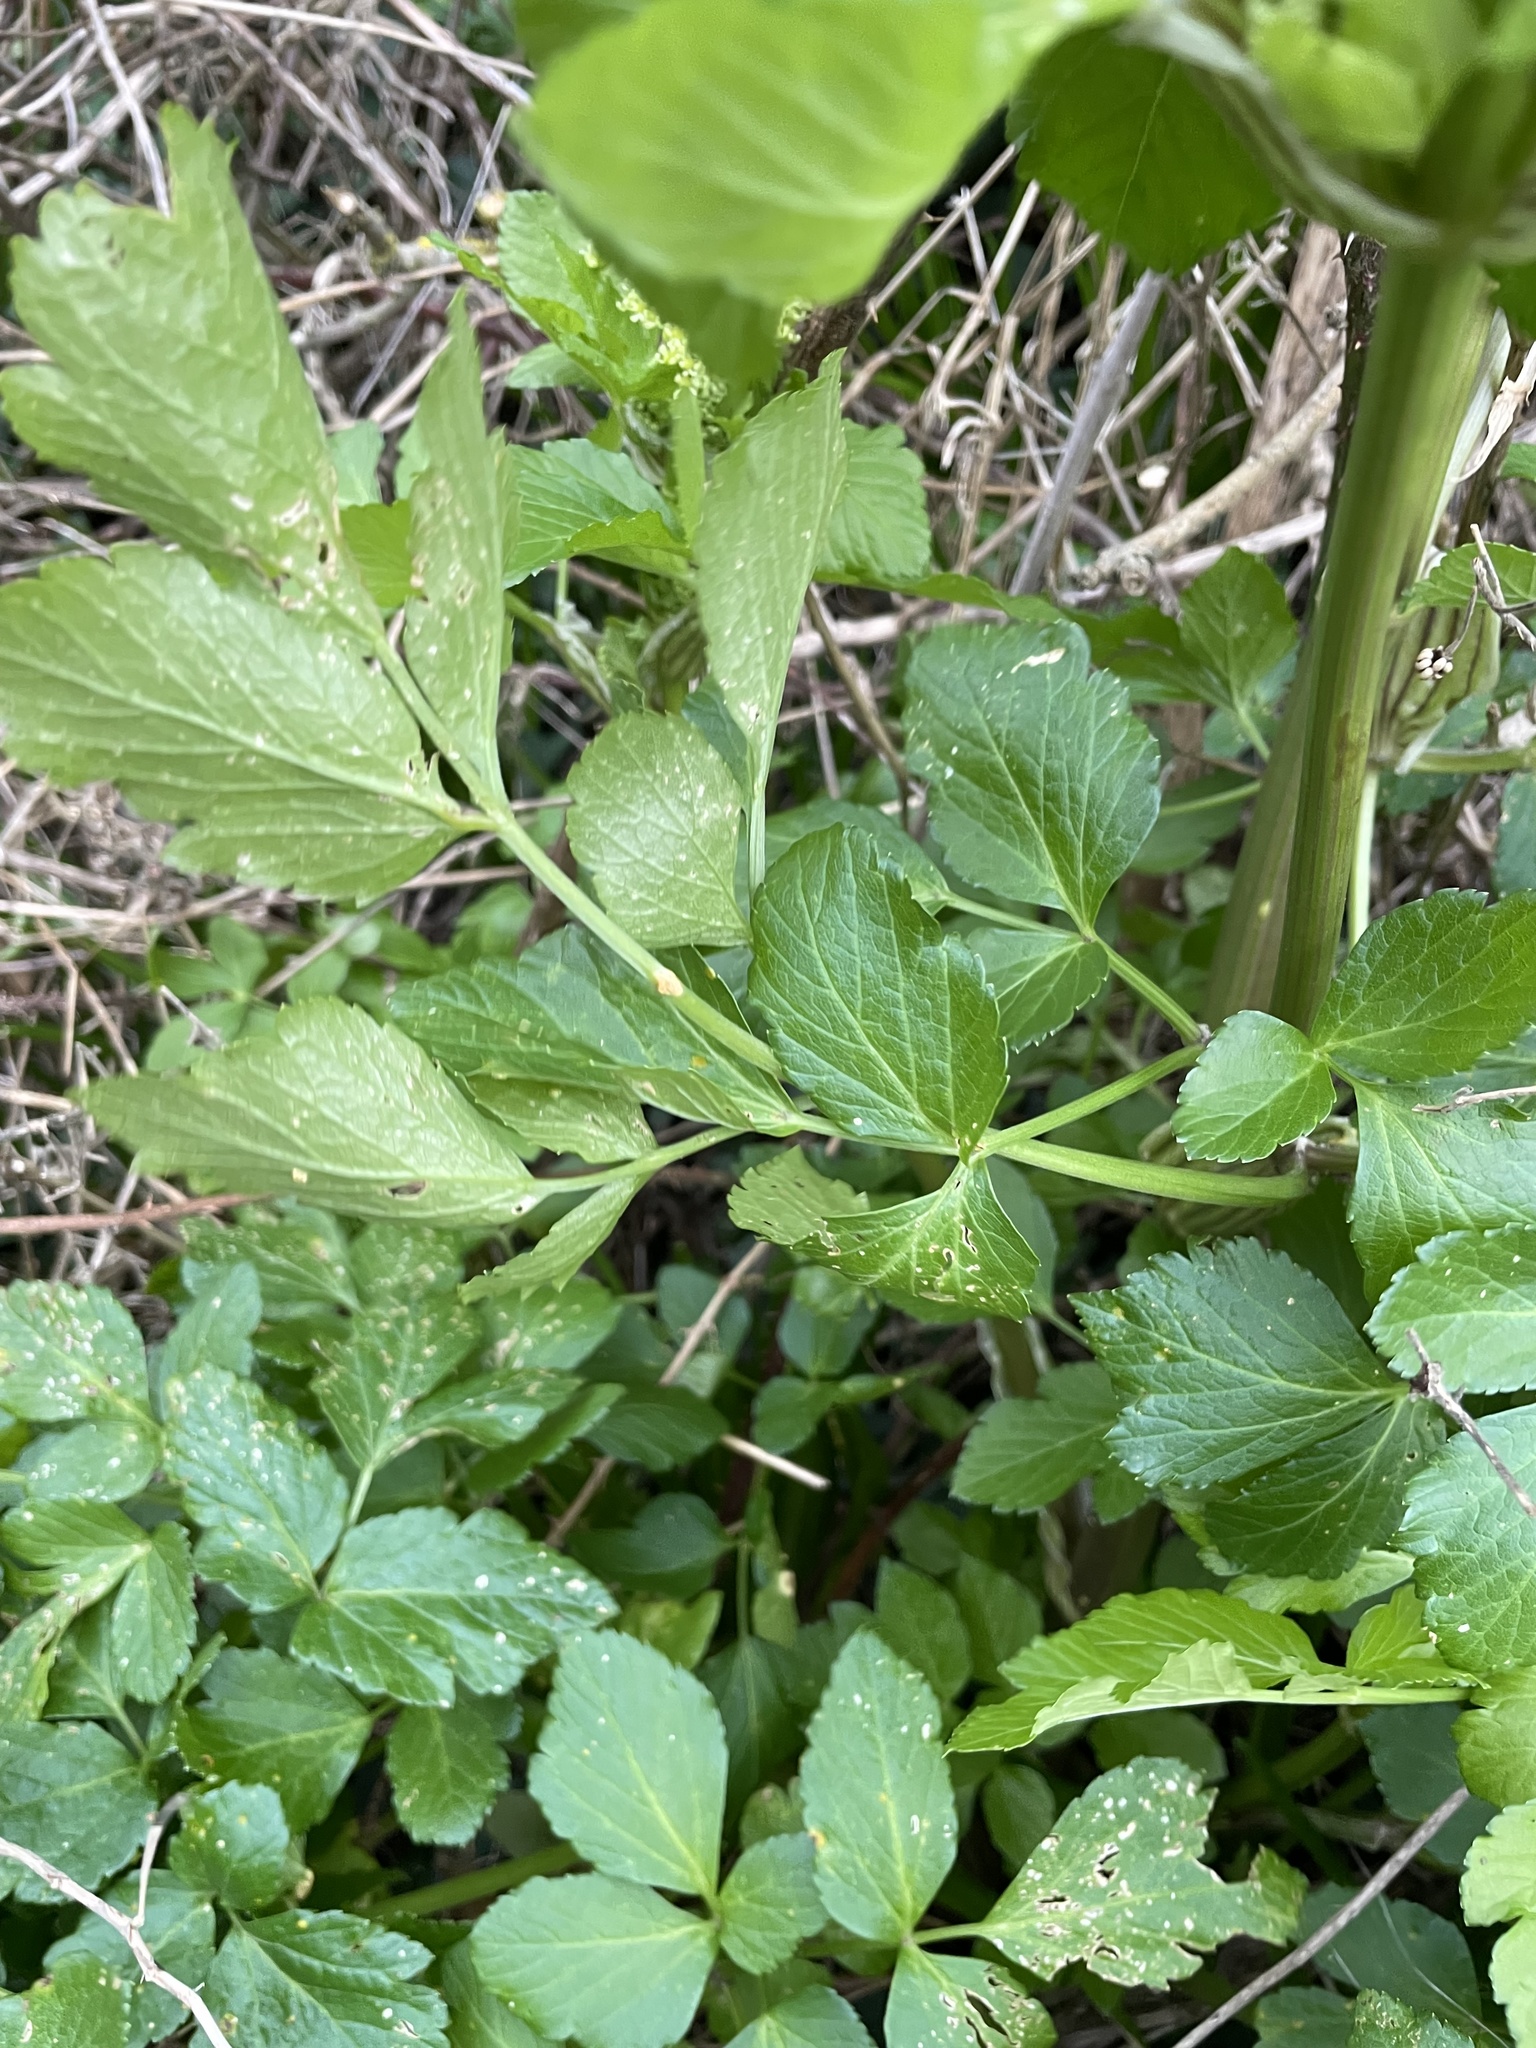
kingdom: Plantae
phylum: Tracheophyta
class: Magnoliopsida
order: Apiales
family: Apiaceae
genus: Smyrnium
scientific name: Smyrnium olusatrum
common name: Alexanders
